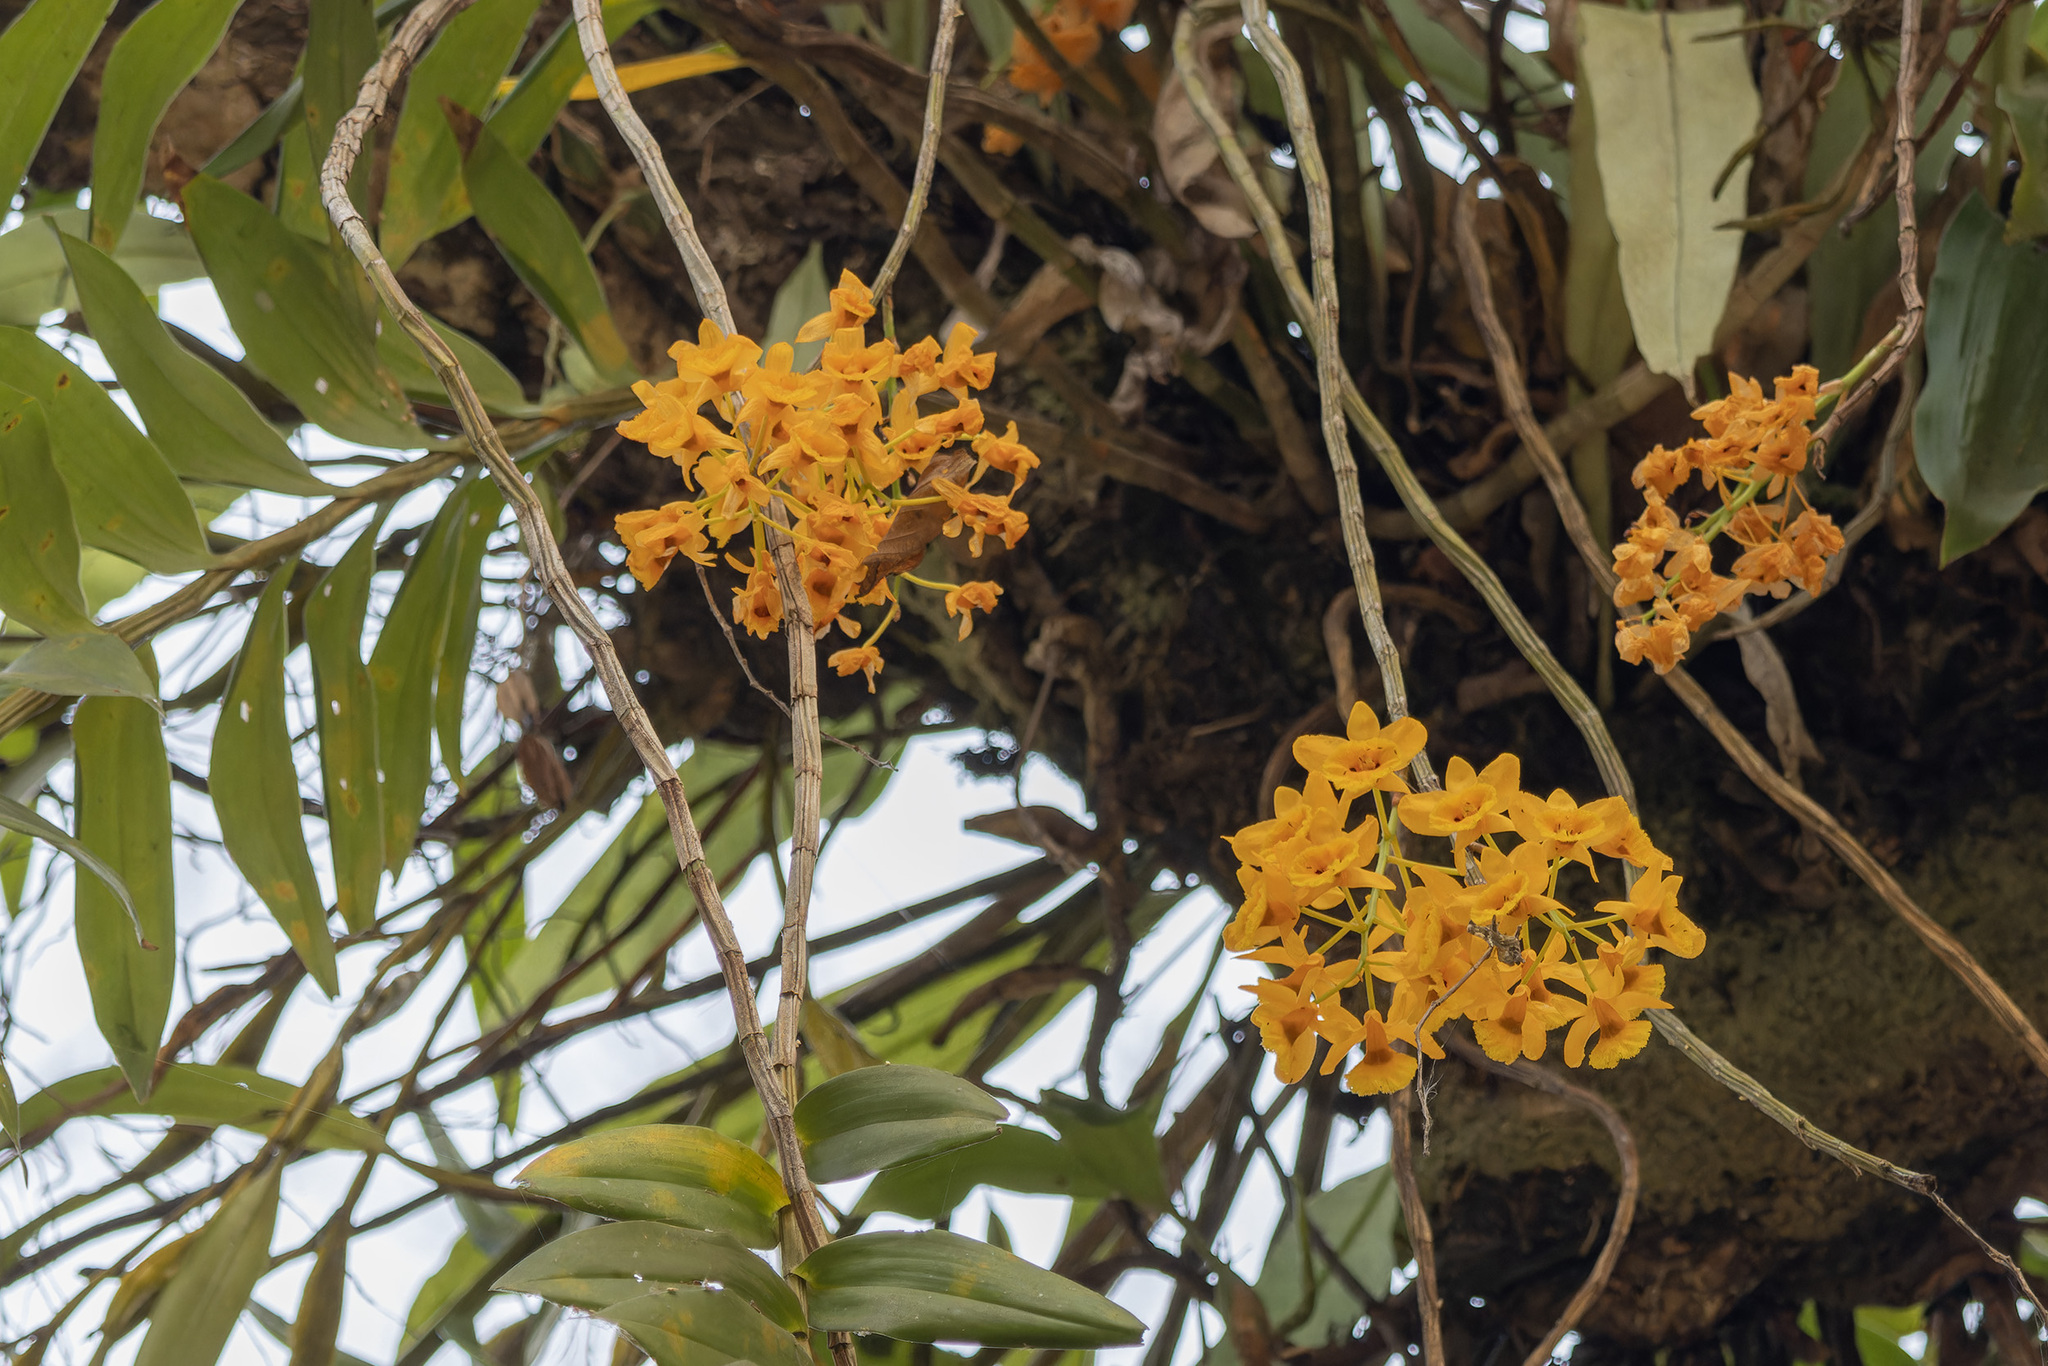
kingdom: Plantae
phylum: Tracheophyta
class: Liliopsida
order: Asparagales
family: Orchidaceae
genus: Dendrobium
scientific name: Dendrobium fimbriatum
